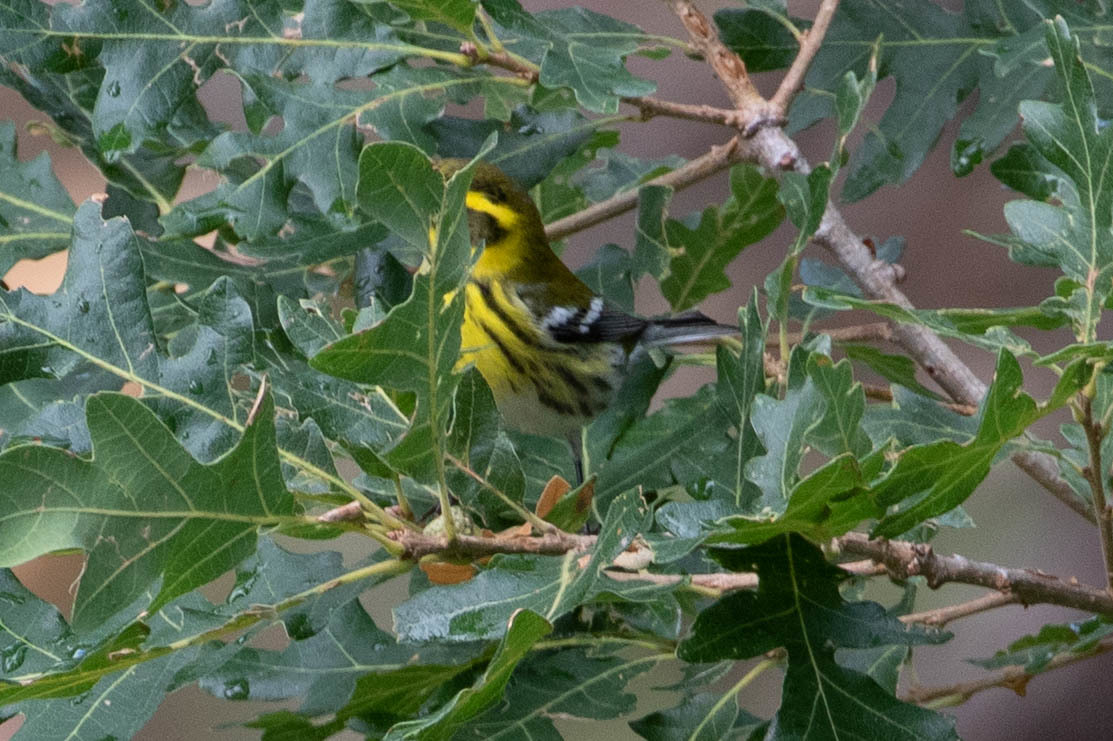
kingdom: Animalia
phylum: Chordata
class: Aves
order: Passeriformes
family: Parulidae
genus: Setophaga
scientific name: Setophaga townsendi
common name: Townsend's warbler
